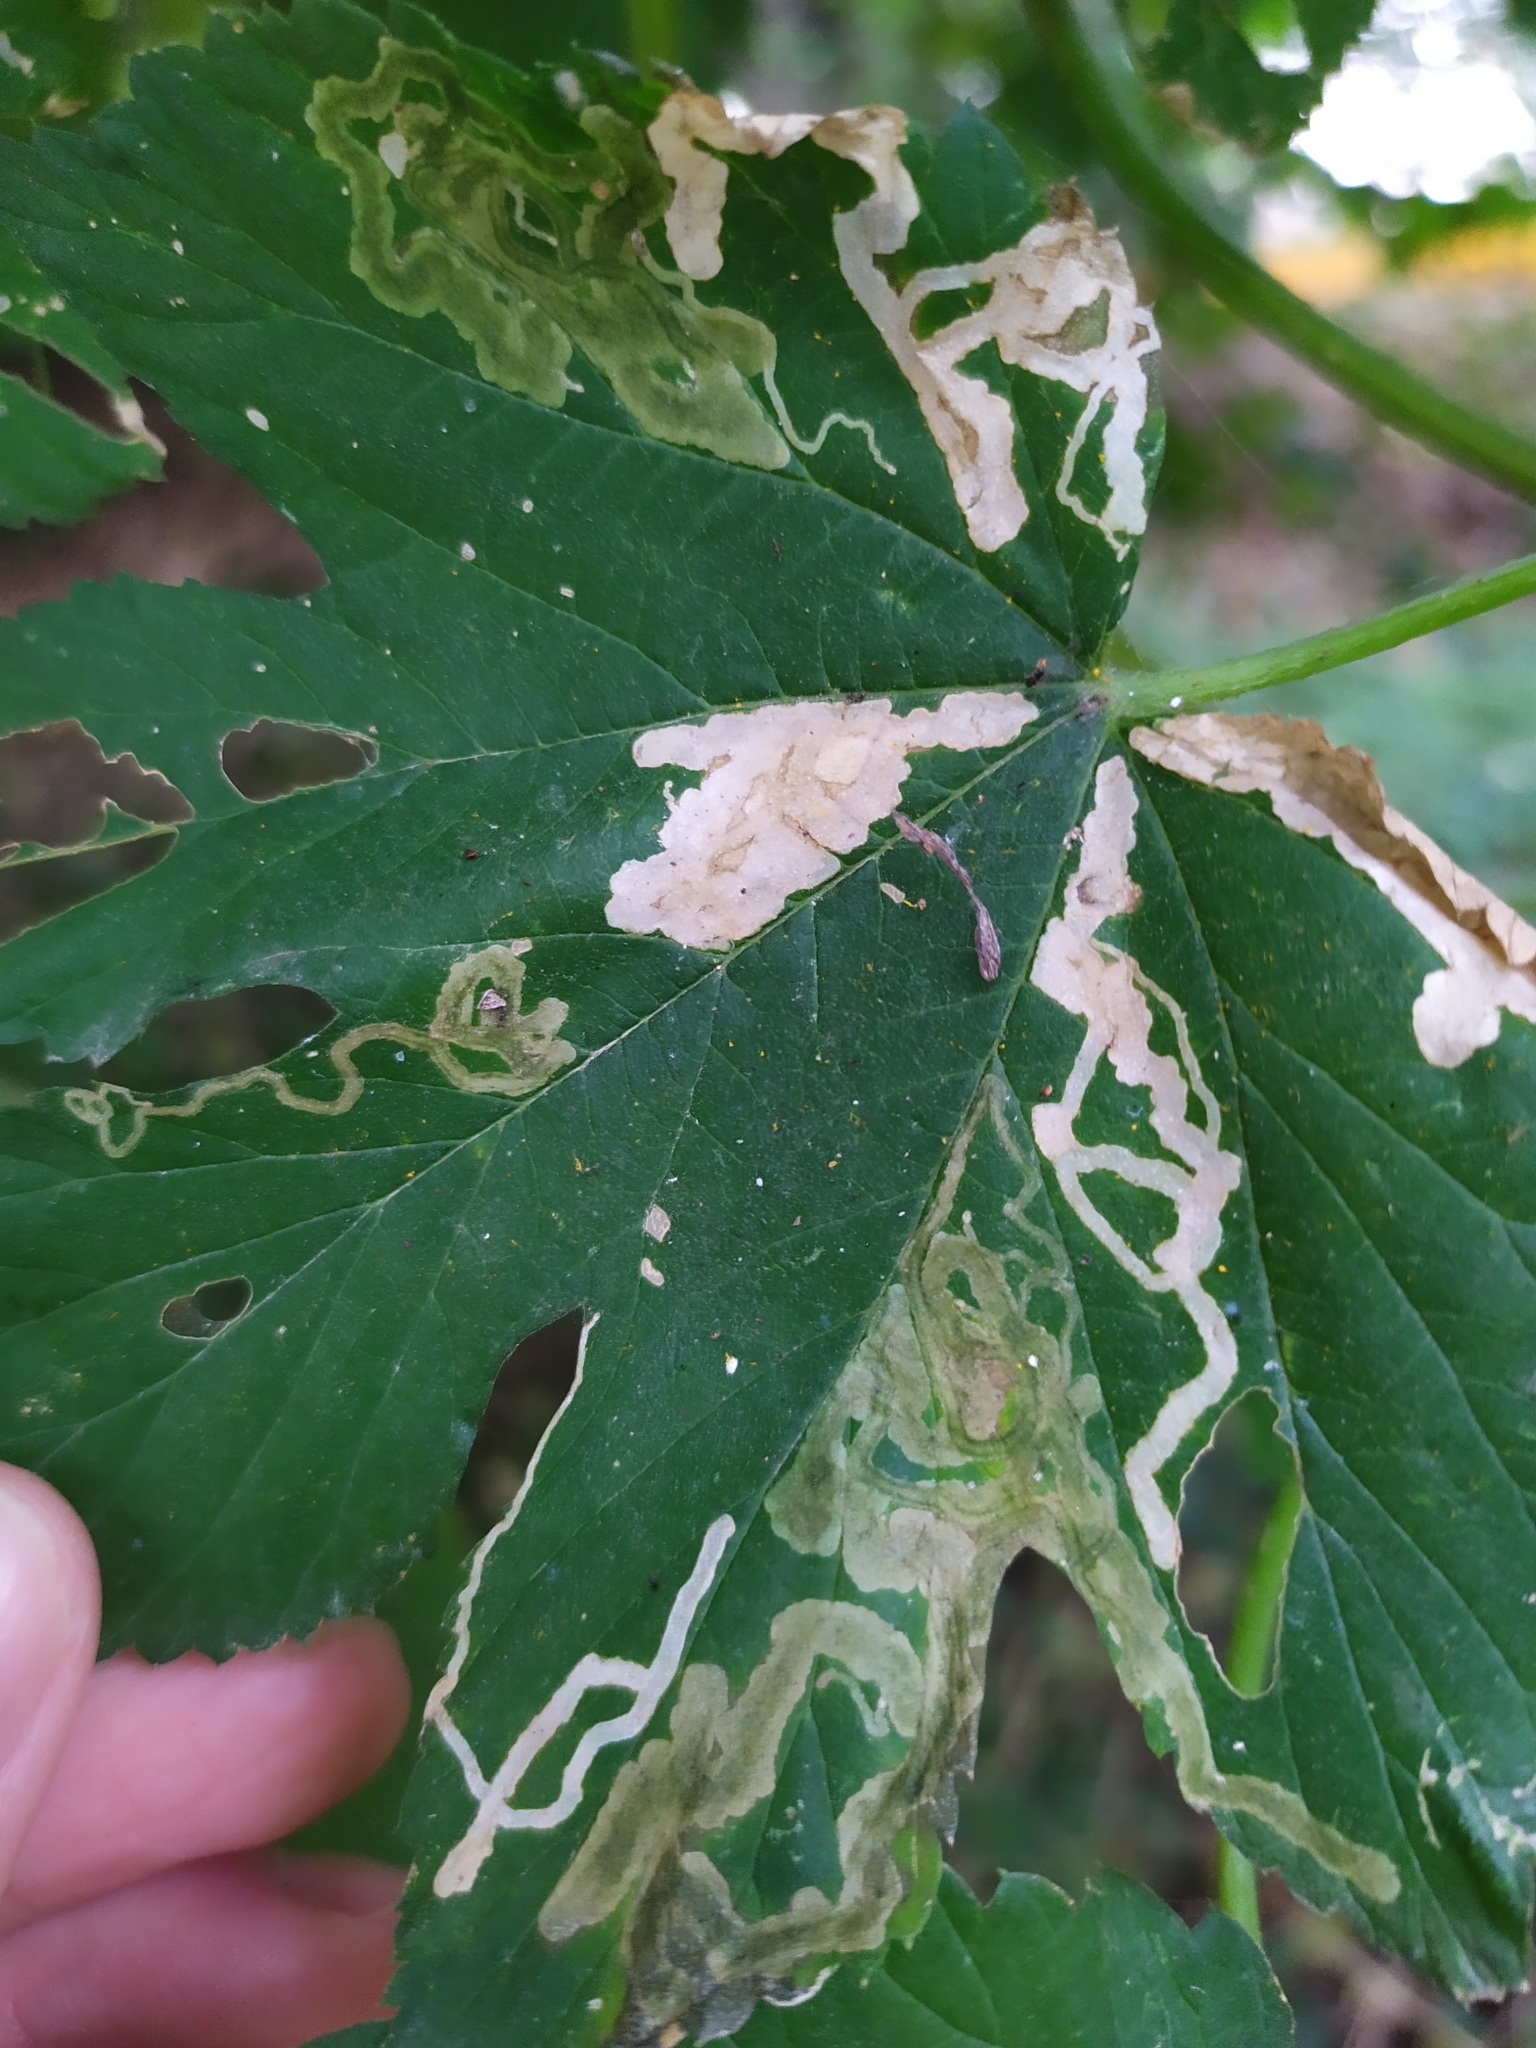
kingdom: Animalia
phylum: Arthropoda
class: Insecta
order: Diptera
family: Agromyzidae
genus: Agromyza
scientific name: Agromyza flaviceps
